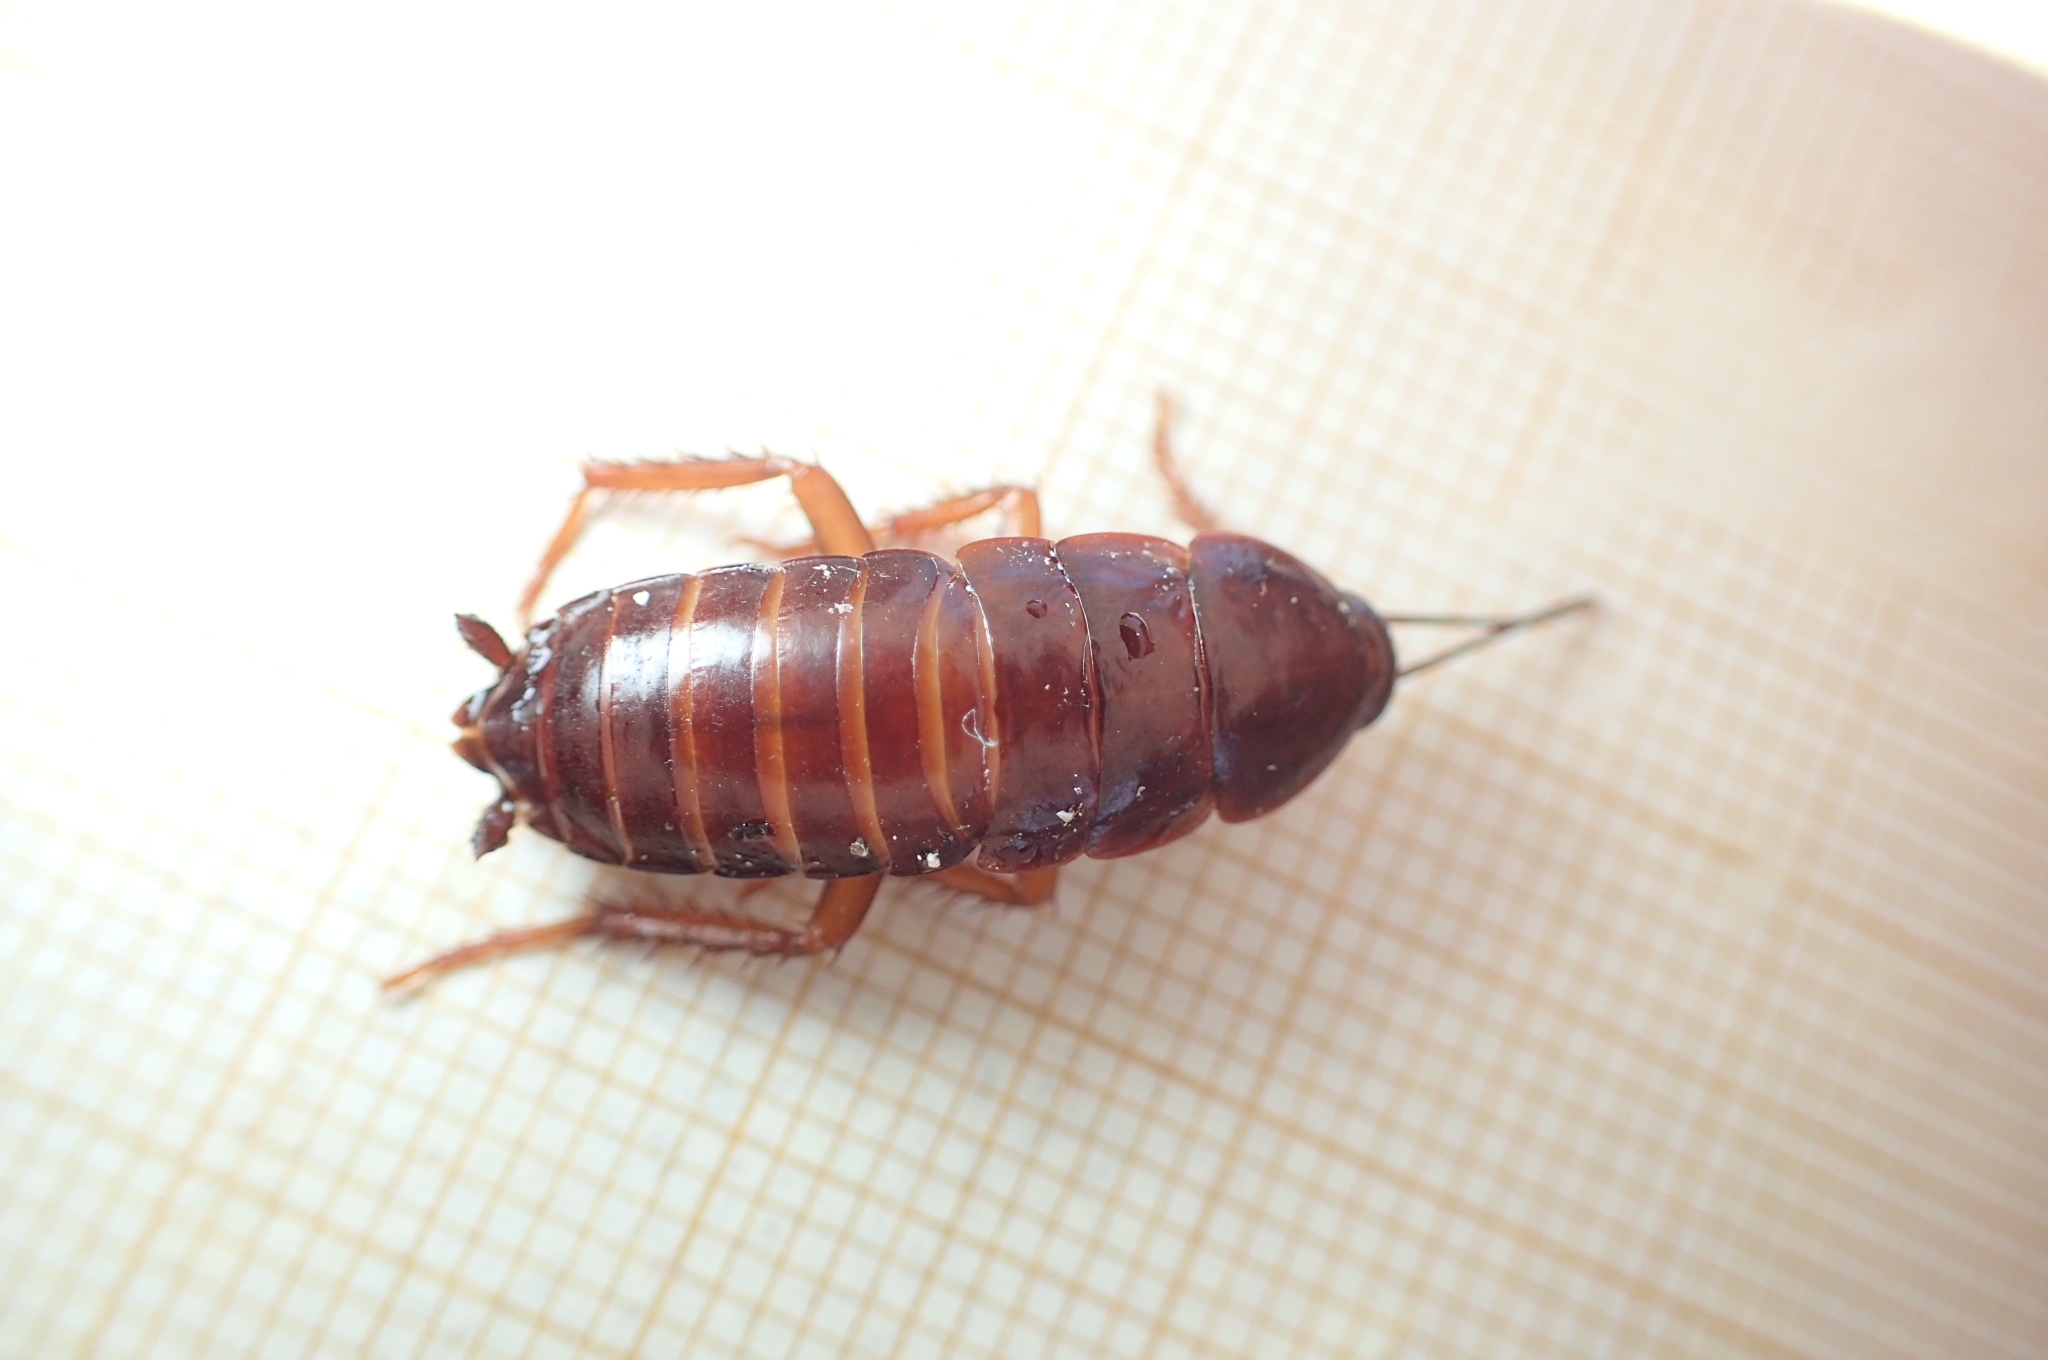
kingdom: Animalia
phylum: Arthropoda
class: Insecta
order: Blattodea
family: Blattidae
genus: Blatta
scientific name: Blatta orientalis
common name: Oriental cockroach
